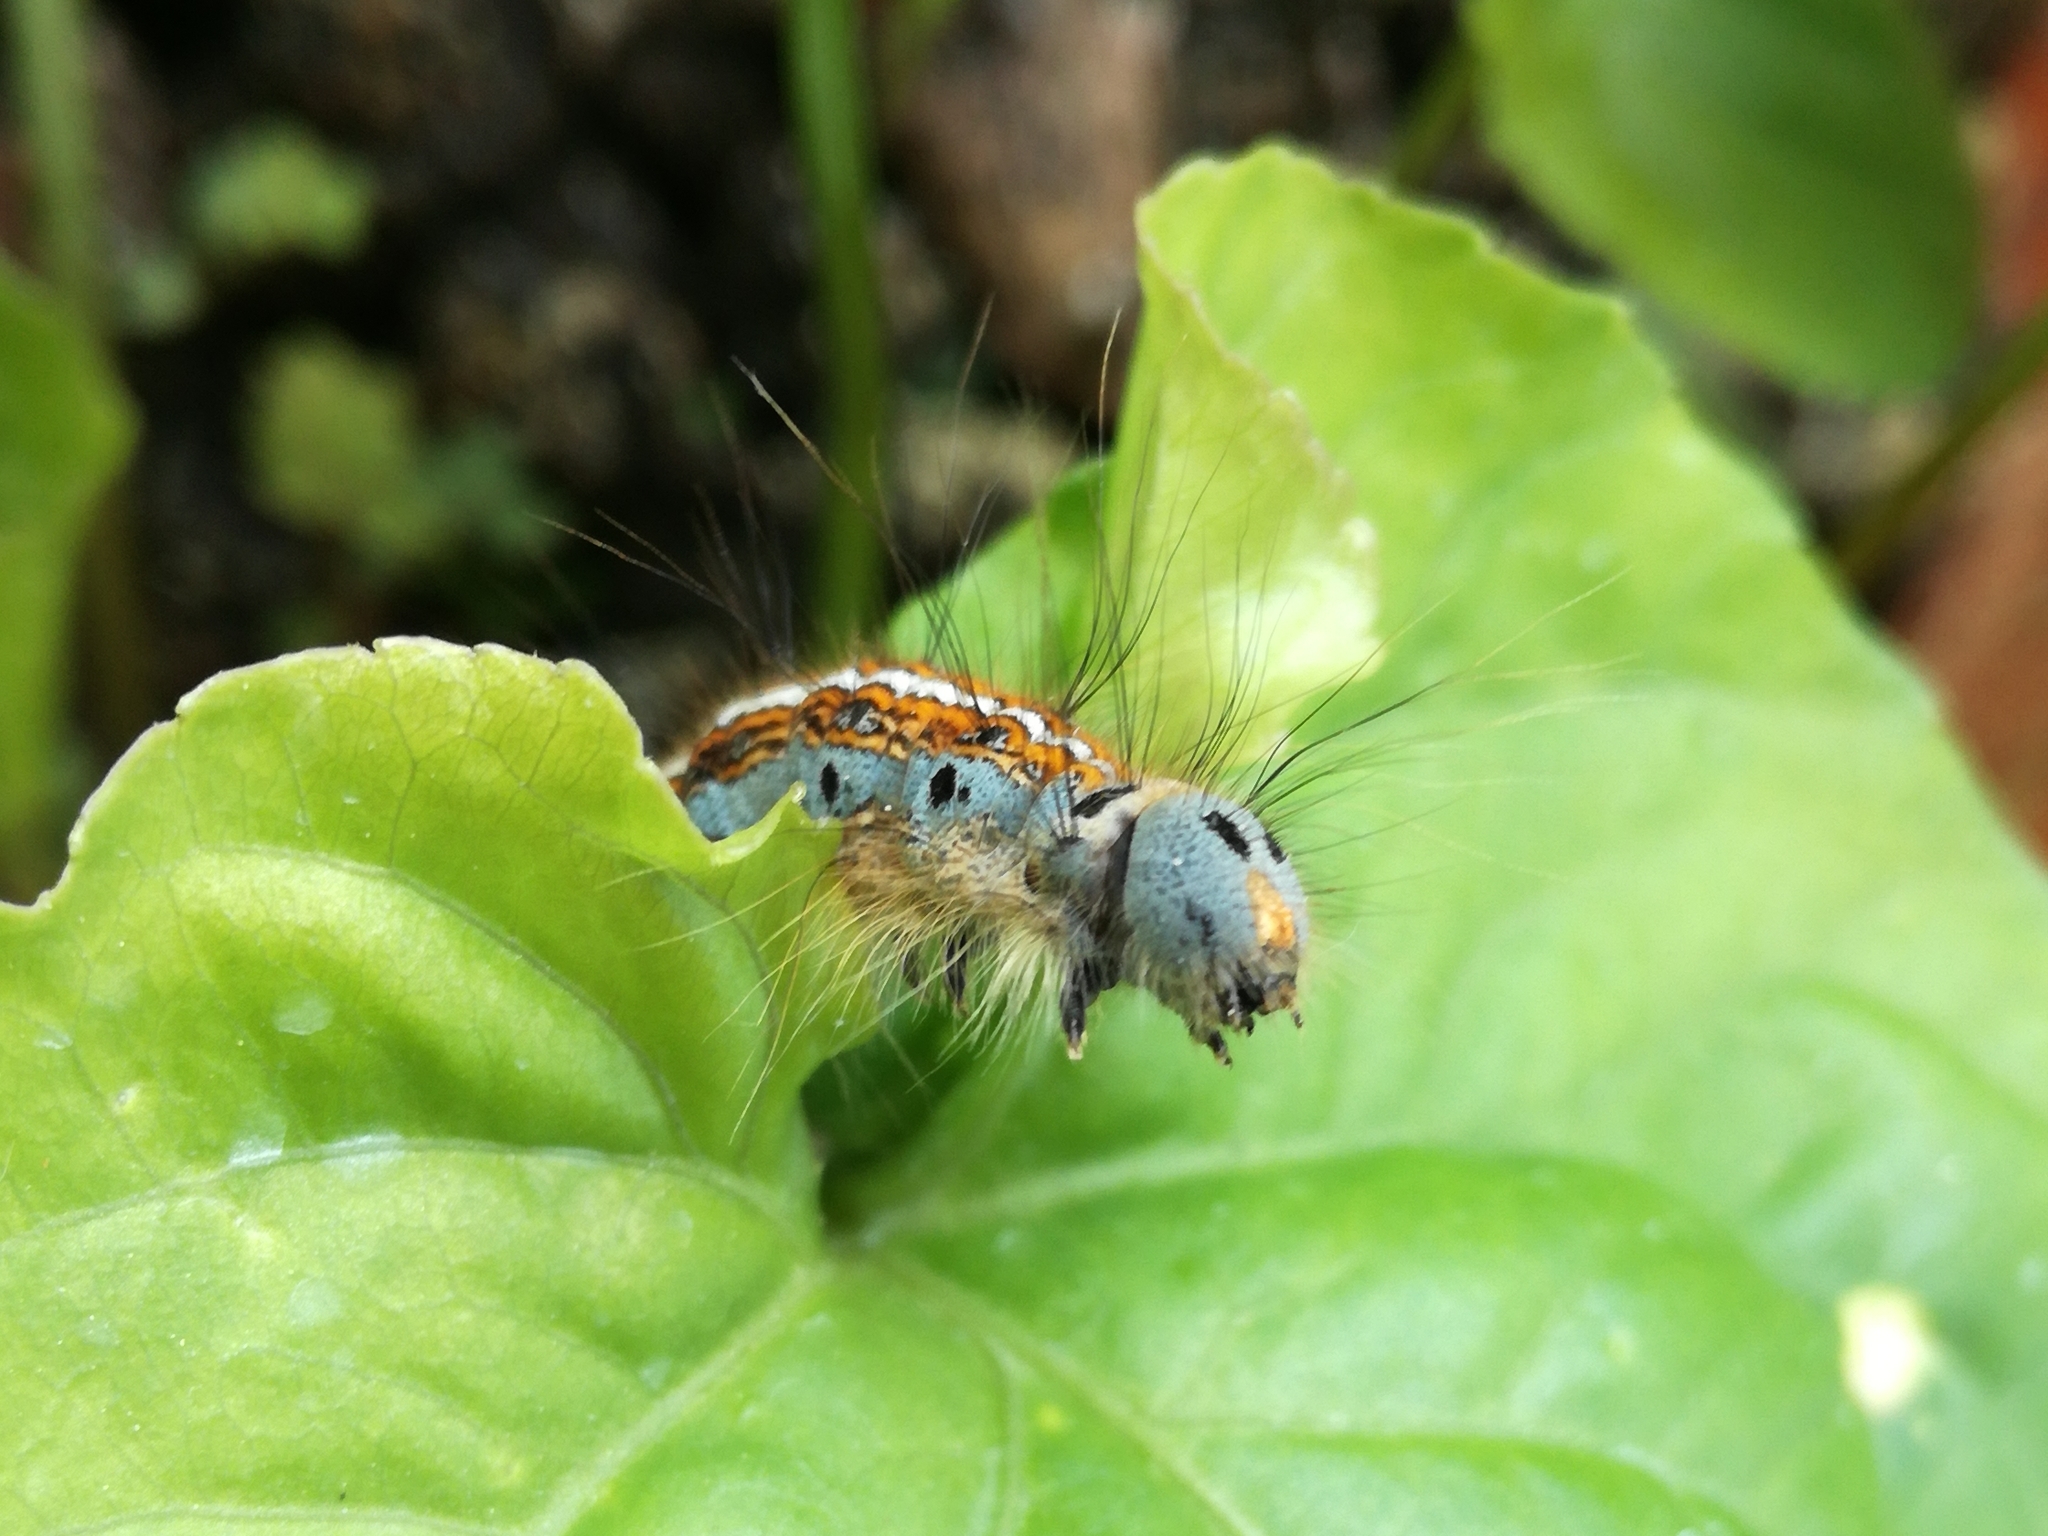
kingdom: Animalia
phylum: Arthropoda
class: Insecta
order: Lepidoptera
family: Lasiocampidae
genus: Malacosoma
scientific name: Malacosoma neustria
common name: The lackey
